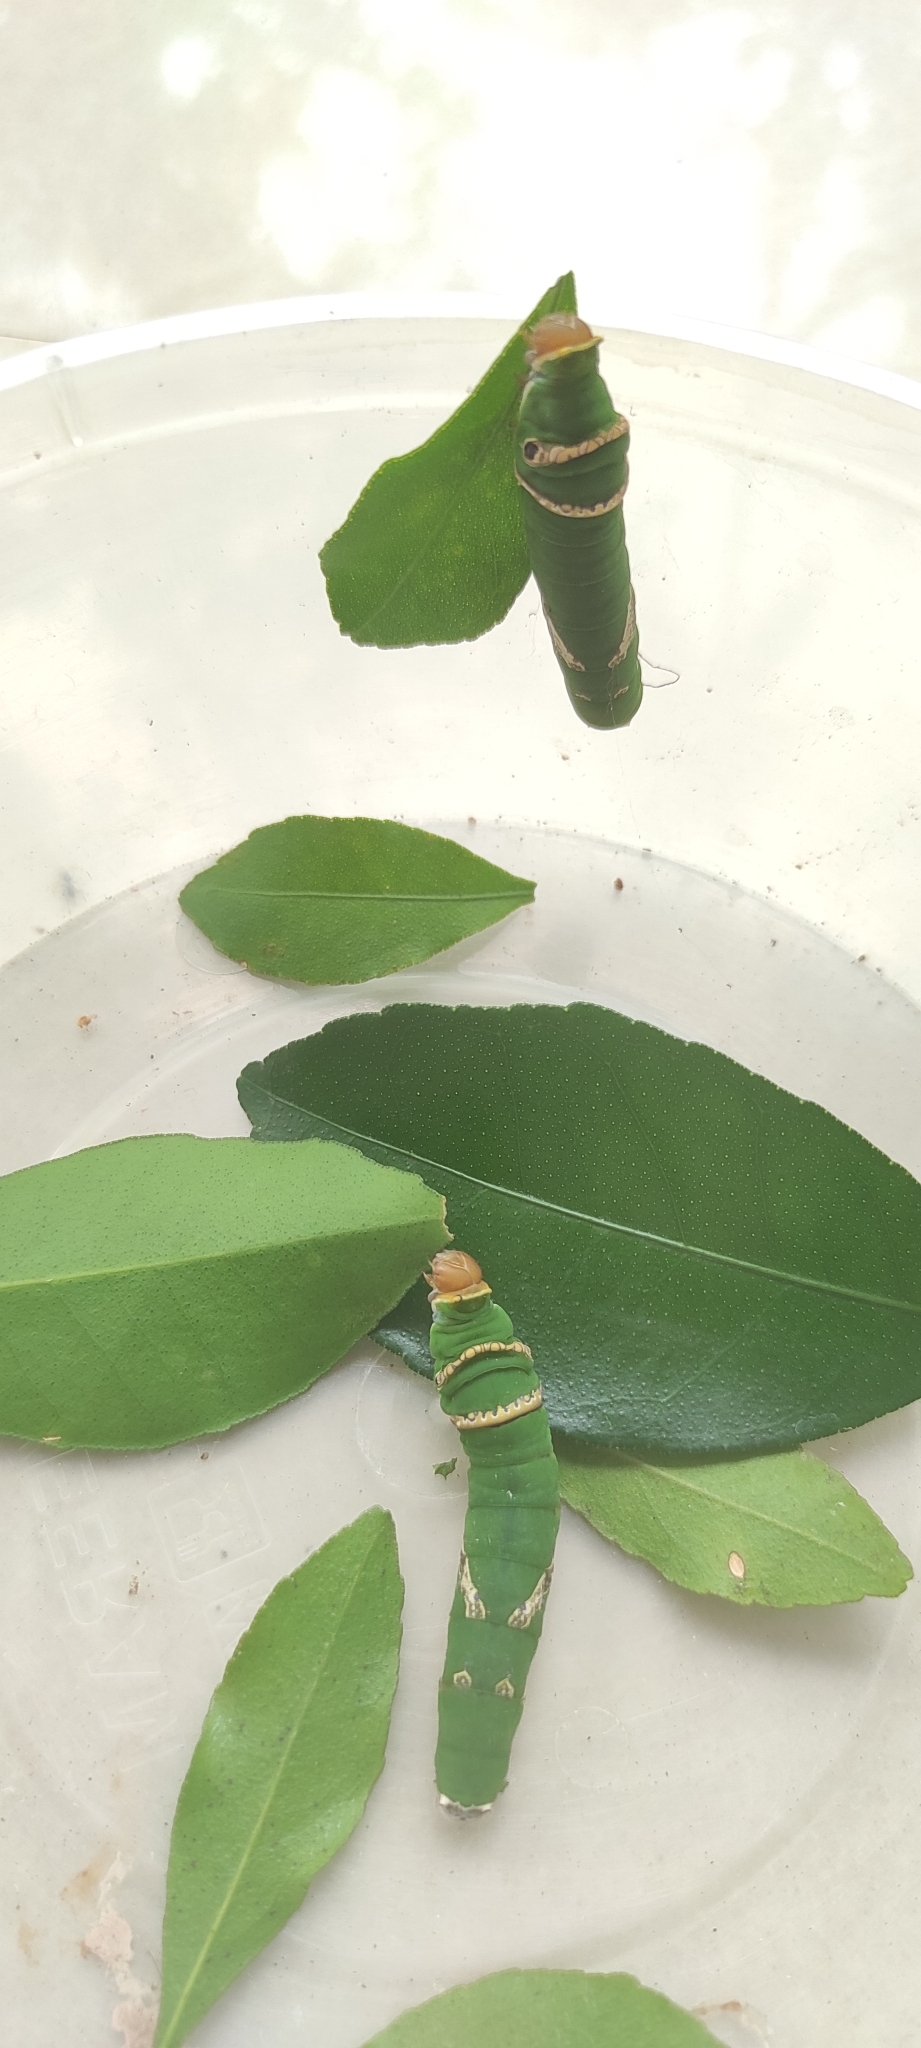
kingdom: Animalia
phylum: Arthropoda
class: Insecta
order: Lepidoptera
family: Papilionidae
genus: Papilio
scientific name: Papilio polytes
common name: Common mormon
